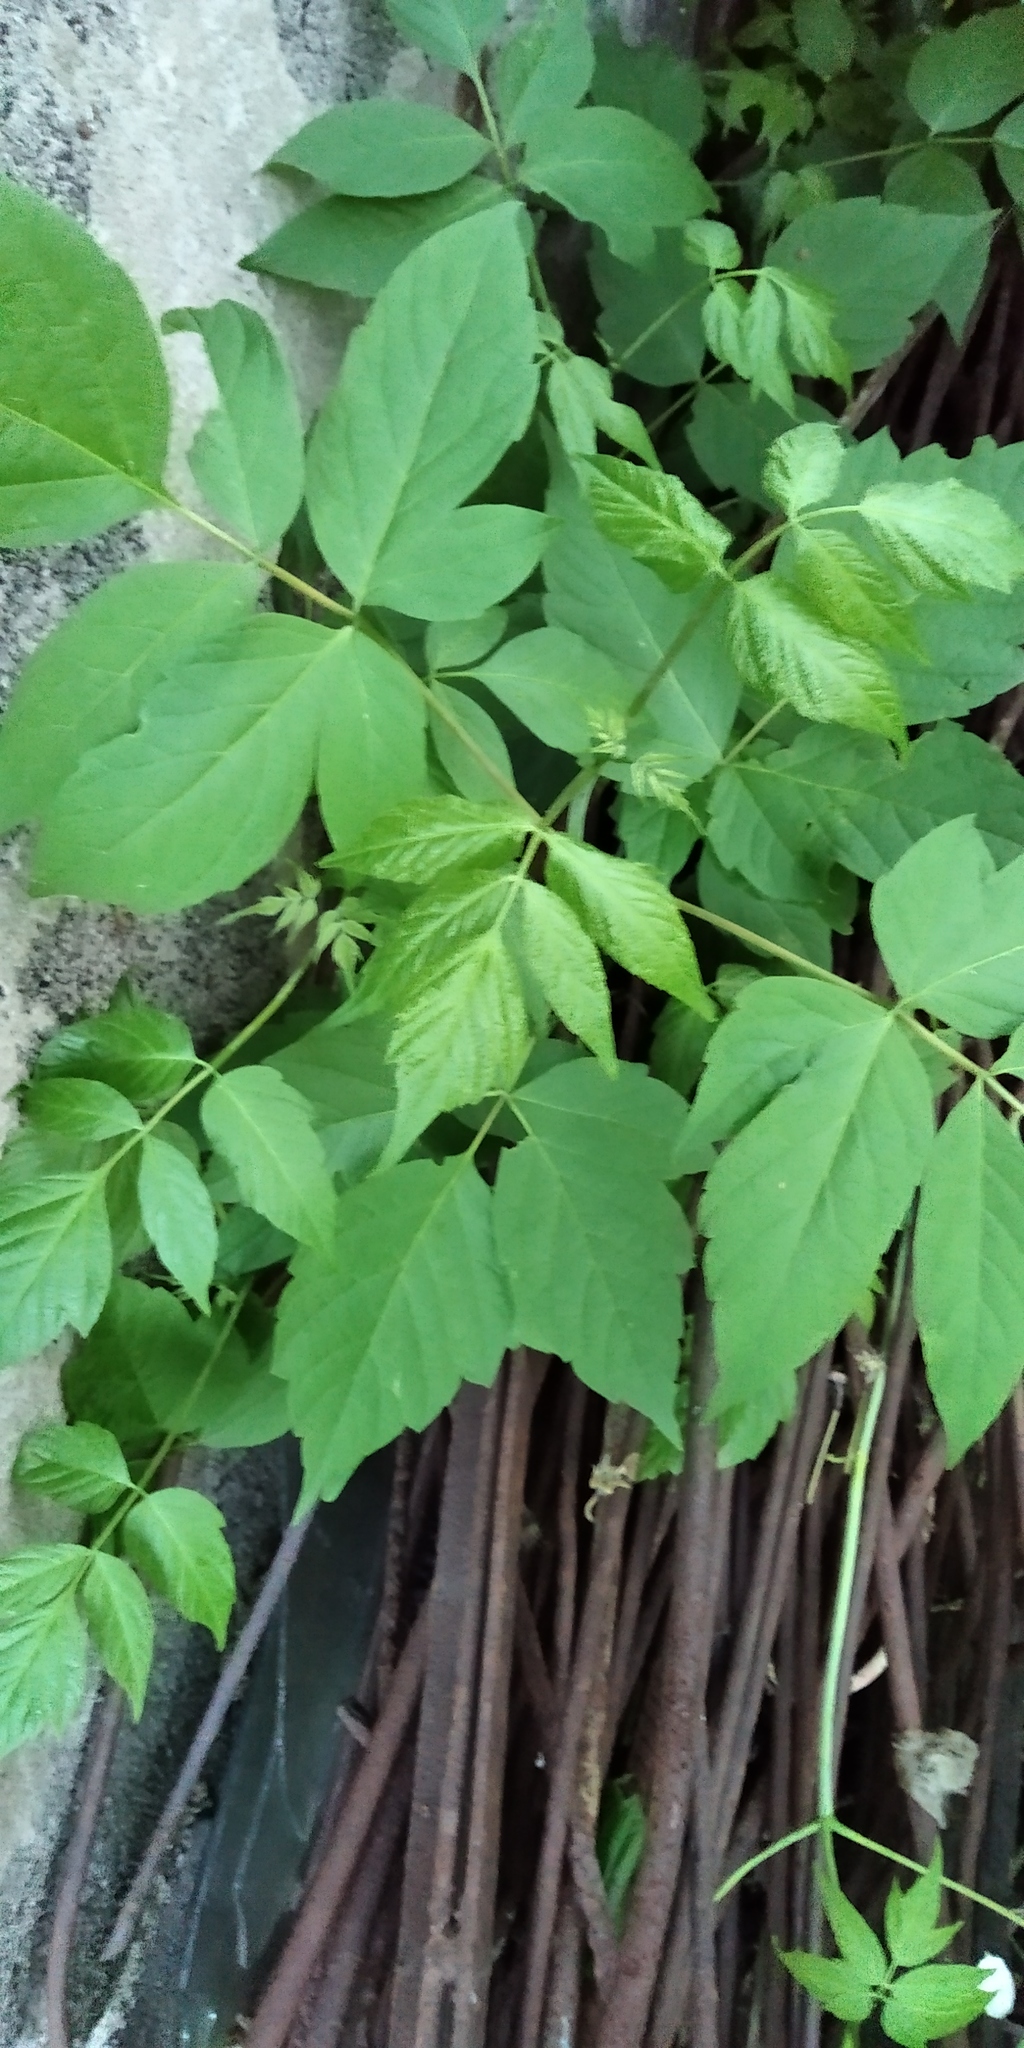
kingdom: Plantae
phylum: Tracheophyta
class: Magnoliopsida
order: Sapindales
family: Sapindaceae
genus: Acer
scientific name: Acer negundo
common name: Ashleaf maple
